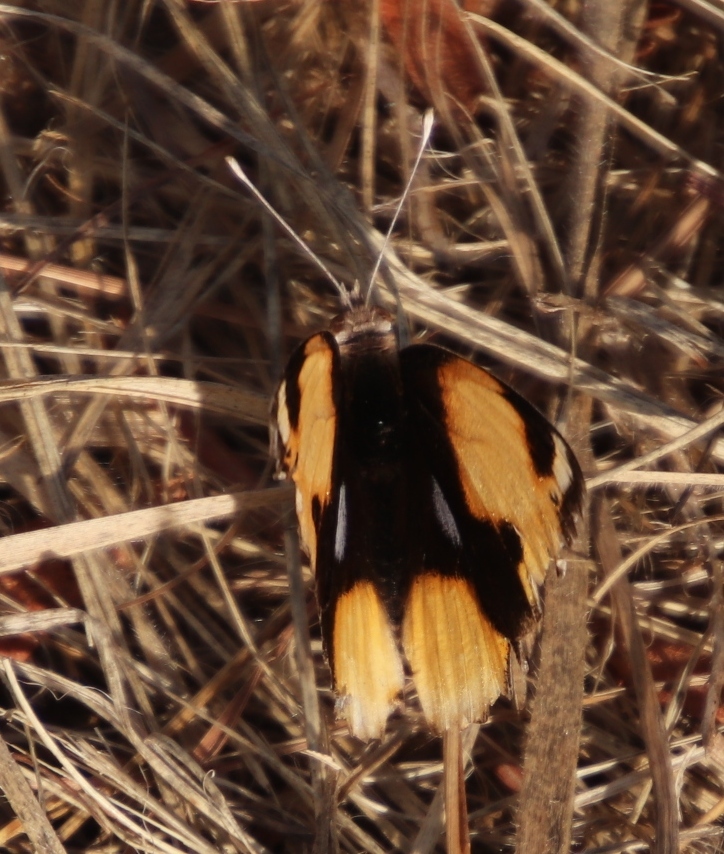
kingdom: Animalia
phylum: Arthropoda
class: Insecta
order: Lepidoptera
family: Nymphalidae
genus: Junonia
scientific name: Junonia hierta
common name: Yellow pansy
